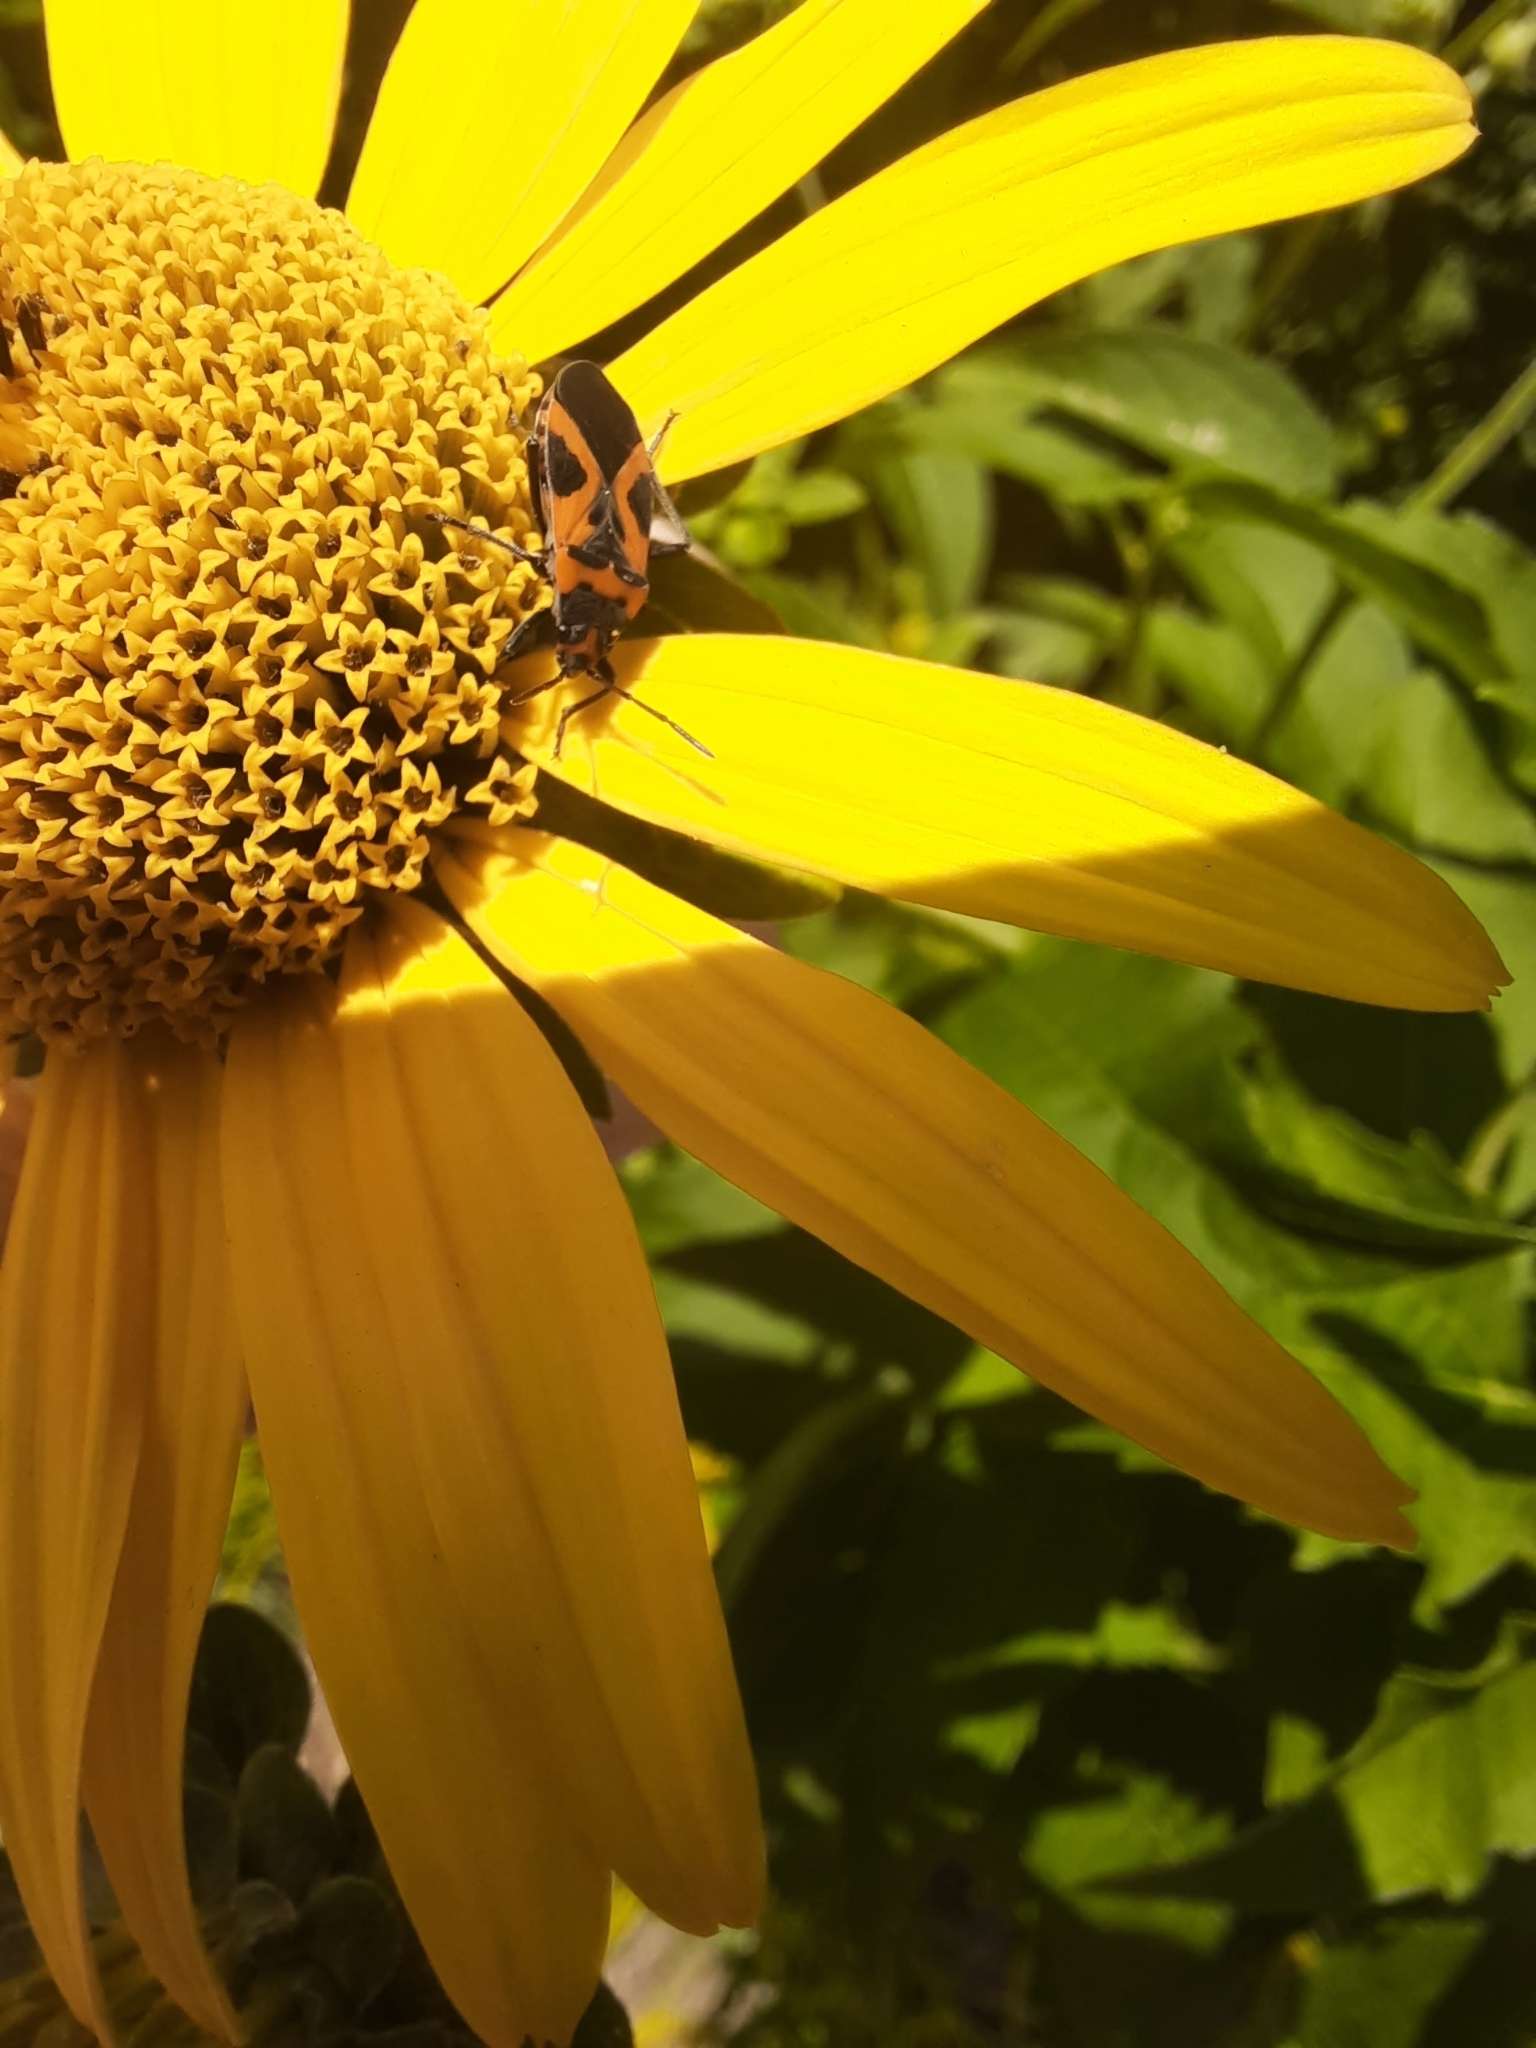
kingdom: Animalia
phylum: Arthropoda
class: Insecta
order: Hemiptera
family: Lygaeidae
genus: Lygaeus
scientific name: Lygaeus turcicus
